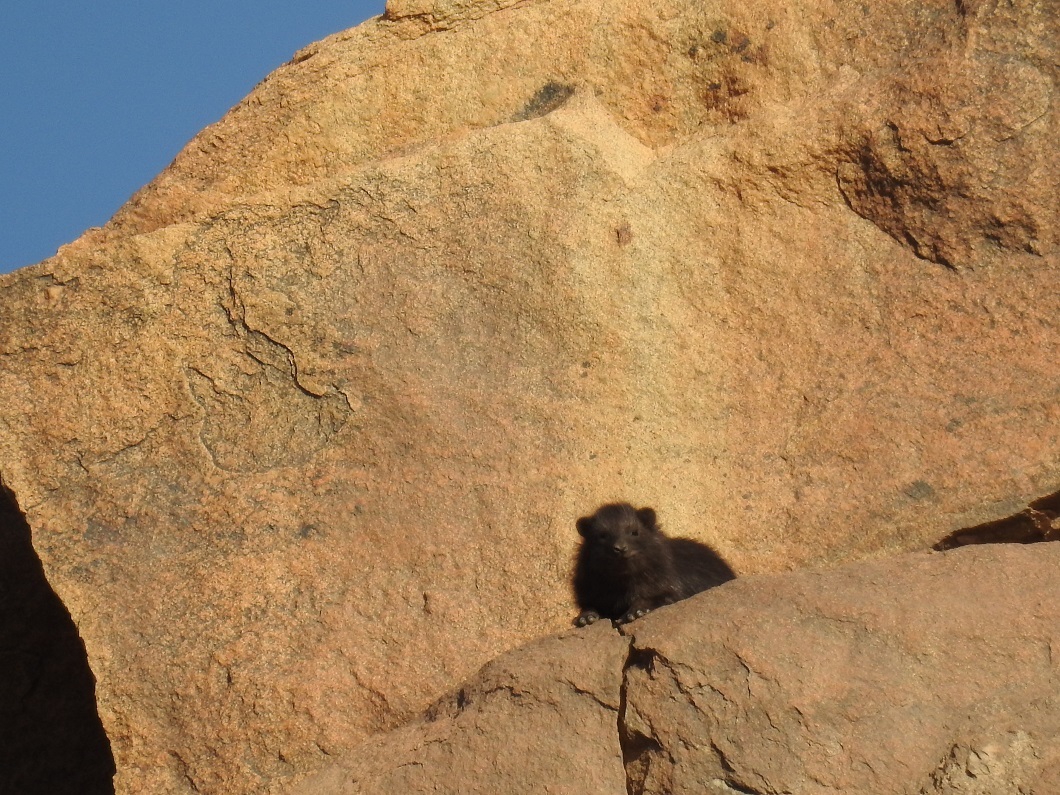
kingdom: Animalia
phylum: Chordata
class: Mammalia
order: Hyracoidea
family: Procaviidae
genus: Procavia
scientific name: Procavia capensis
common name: Rock hyrax
